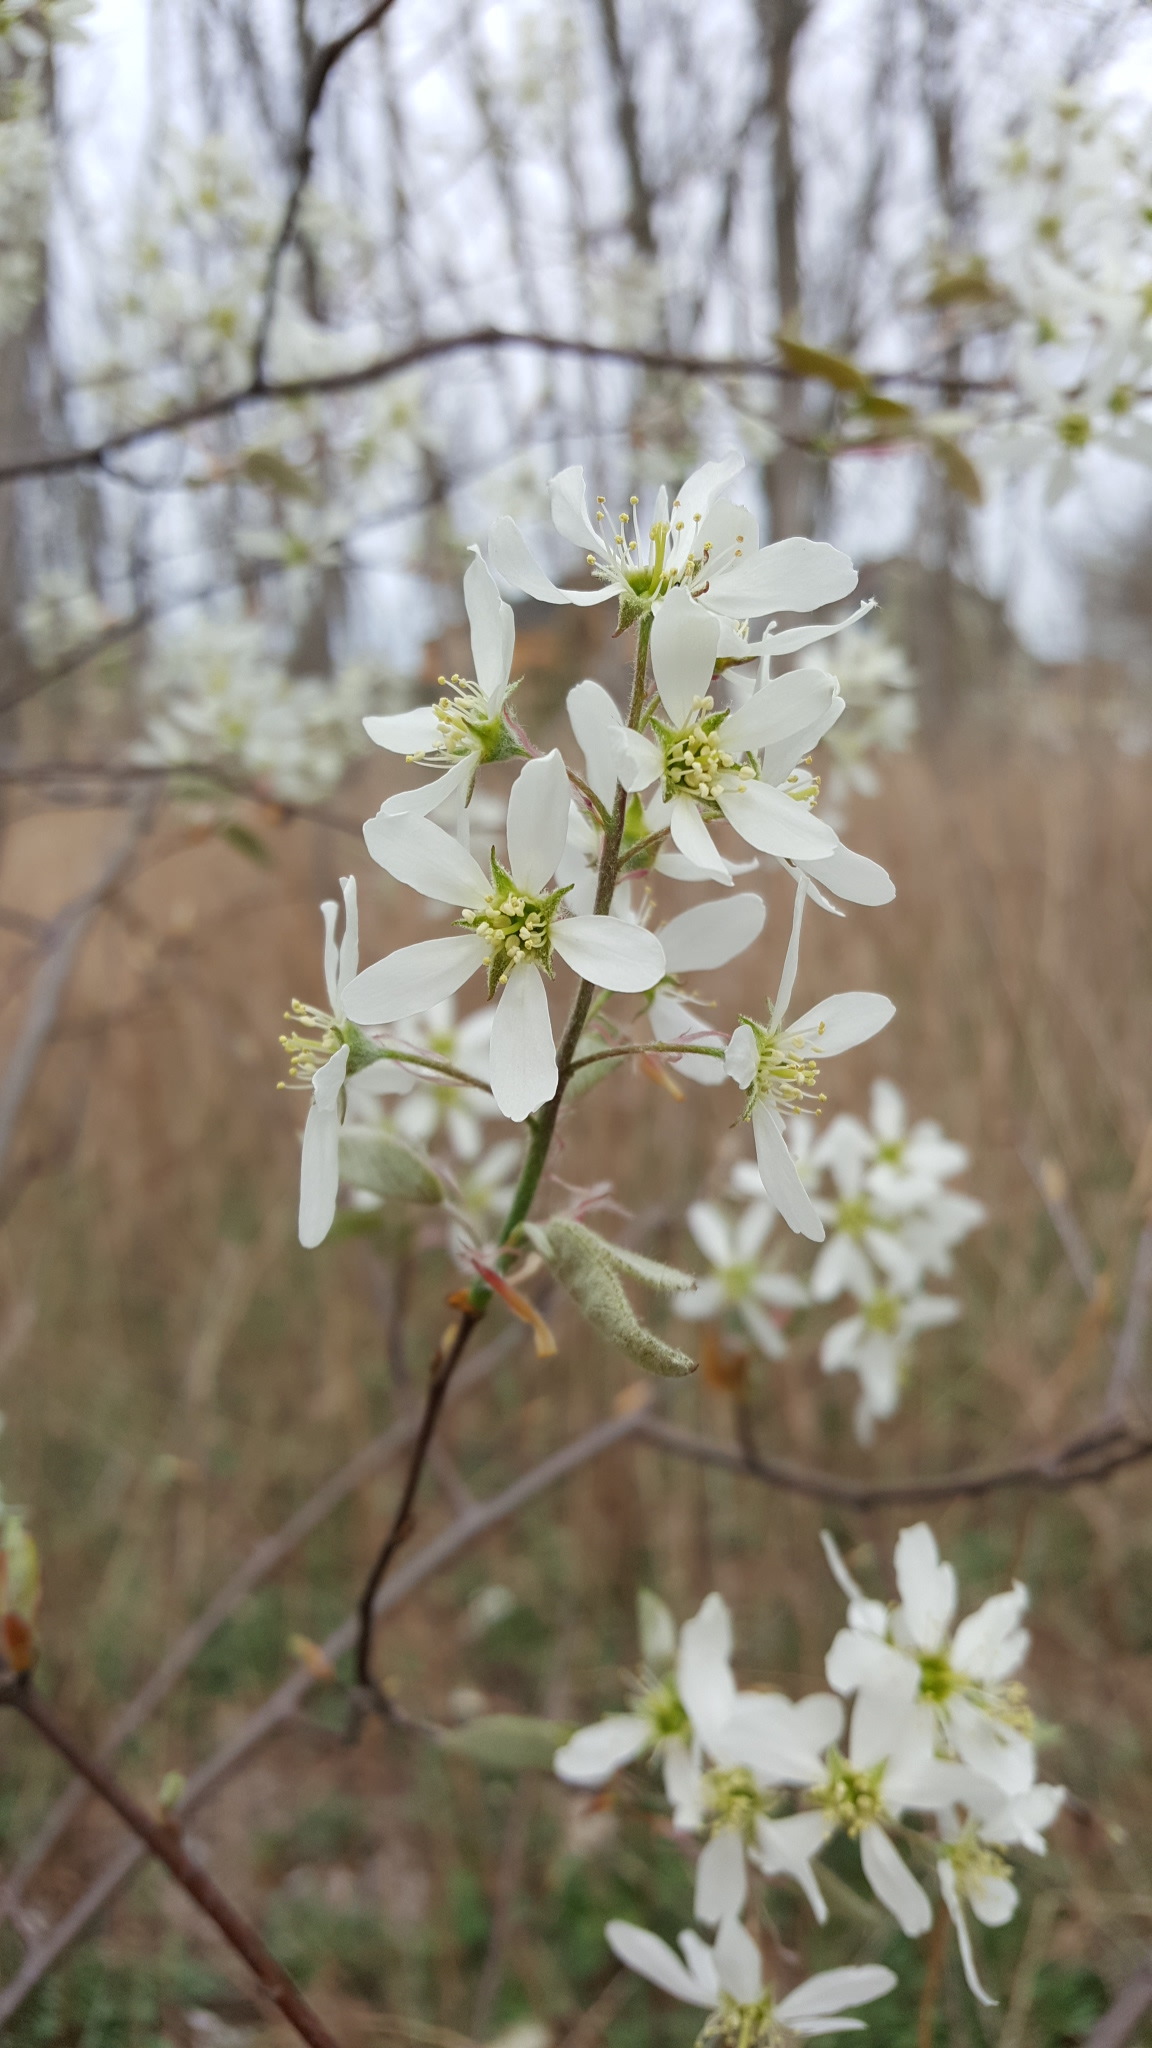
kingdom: Plantae
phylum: Tracheophyta
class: Magnoliopsida
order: Rosales
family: Rosaceae
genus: Amelanchier
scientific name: Amelanchier canadensis
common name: Thicket serviceberry
